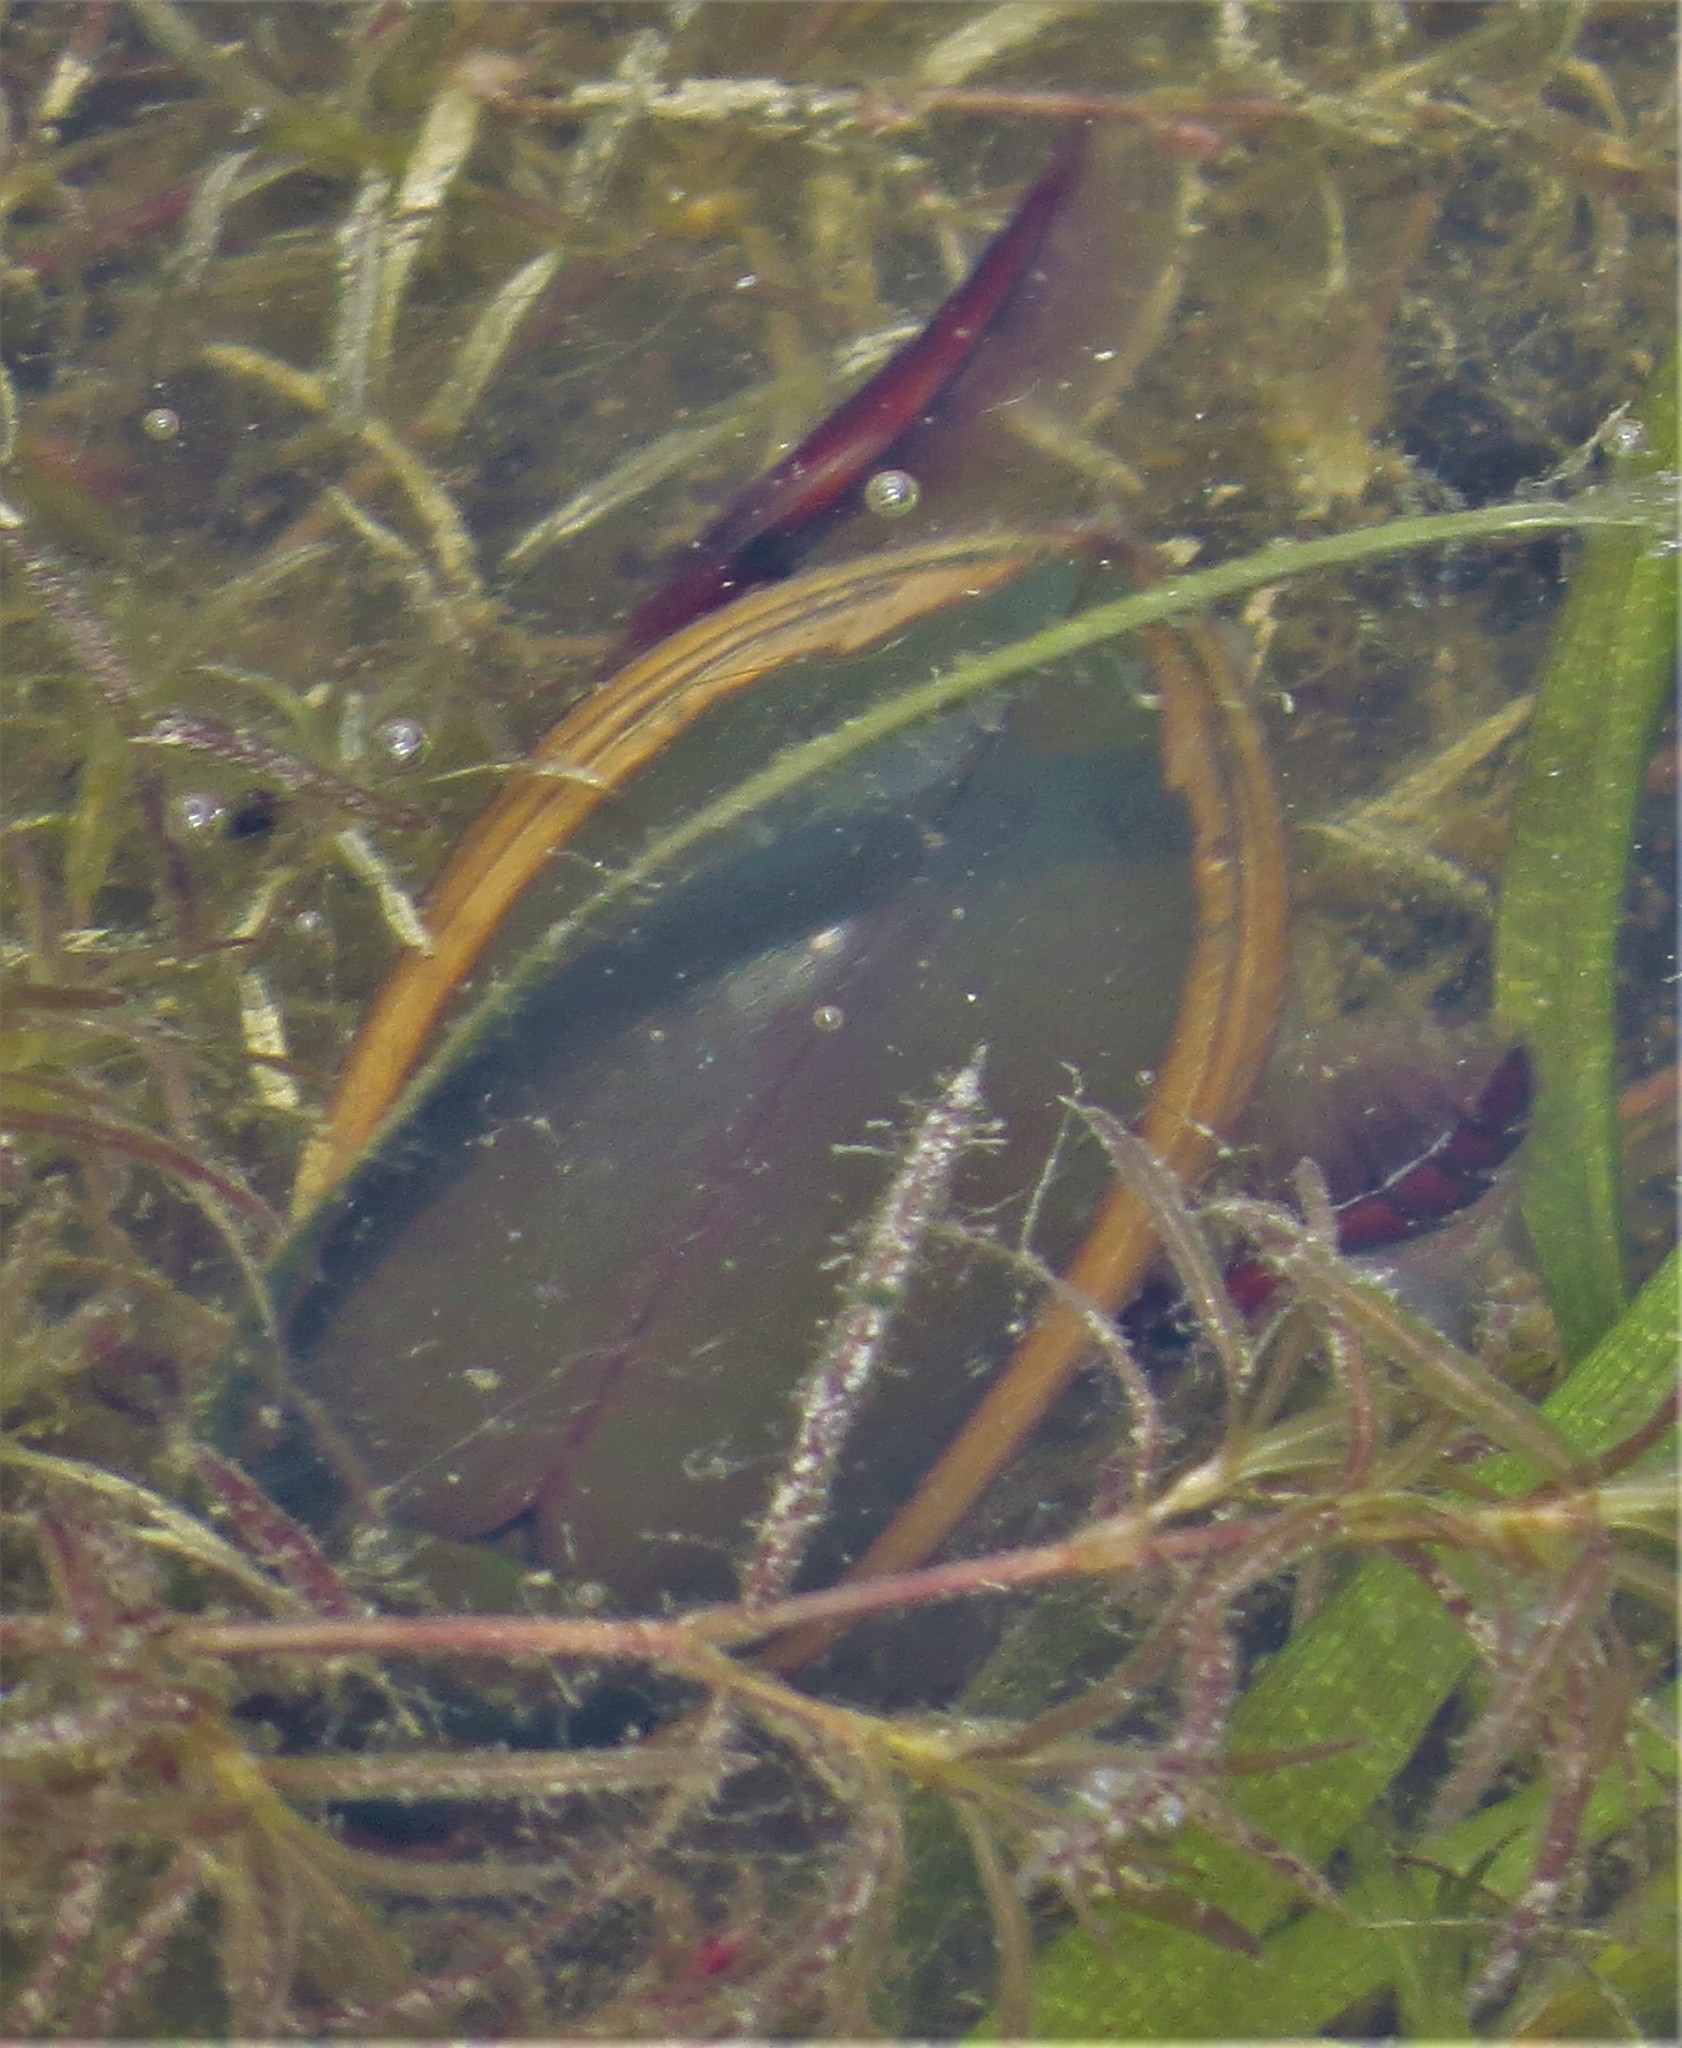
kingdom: Animalia
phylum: Arthropoda
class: Insecta
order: Coleoptera
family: Dytiscidae
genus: Cybister
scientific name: Cybister fimbriolatus
